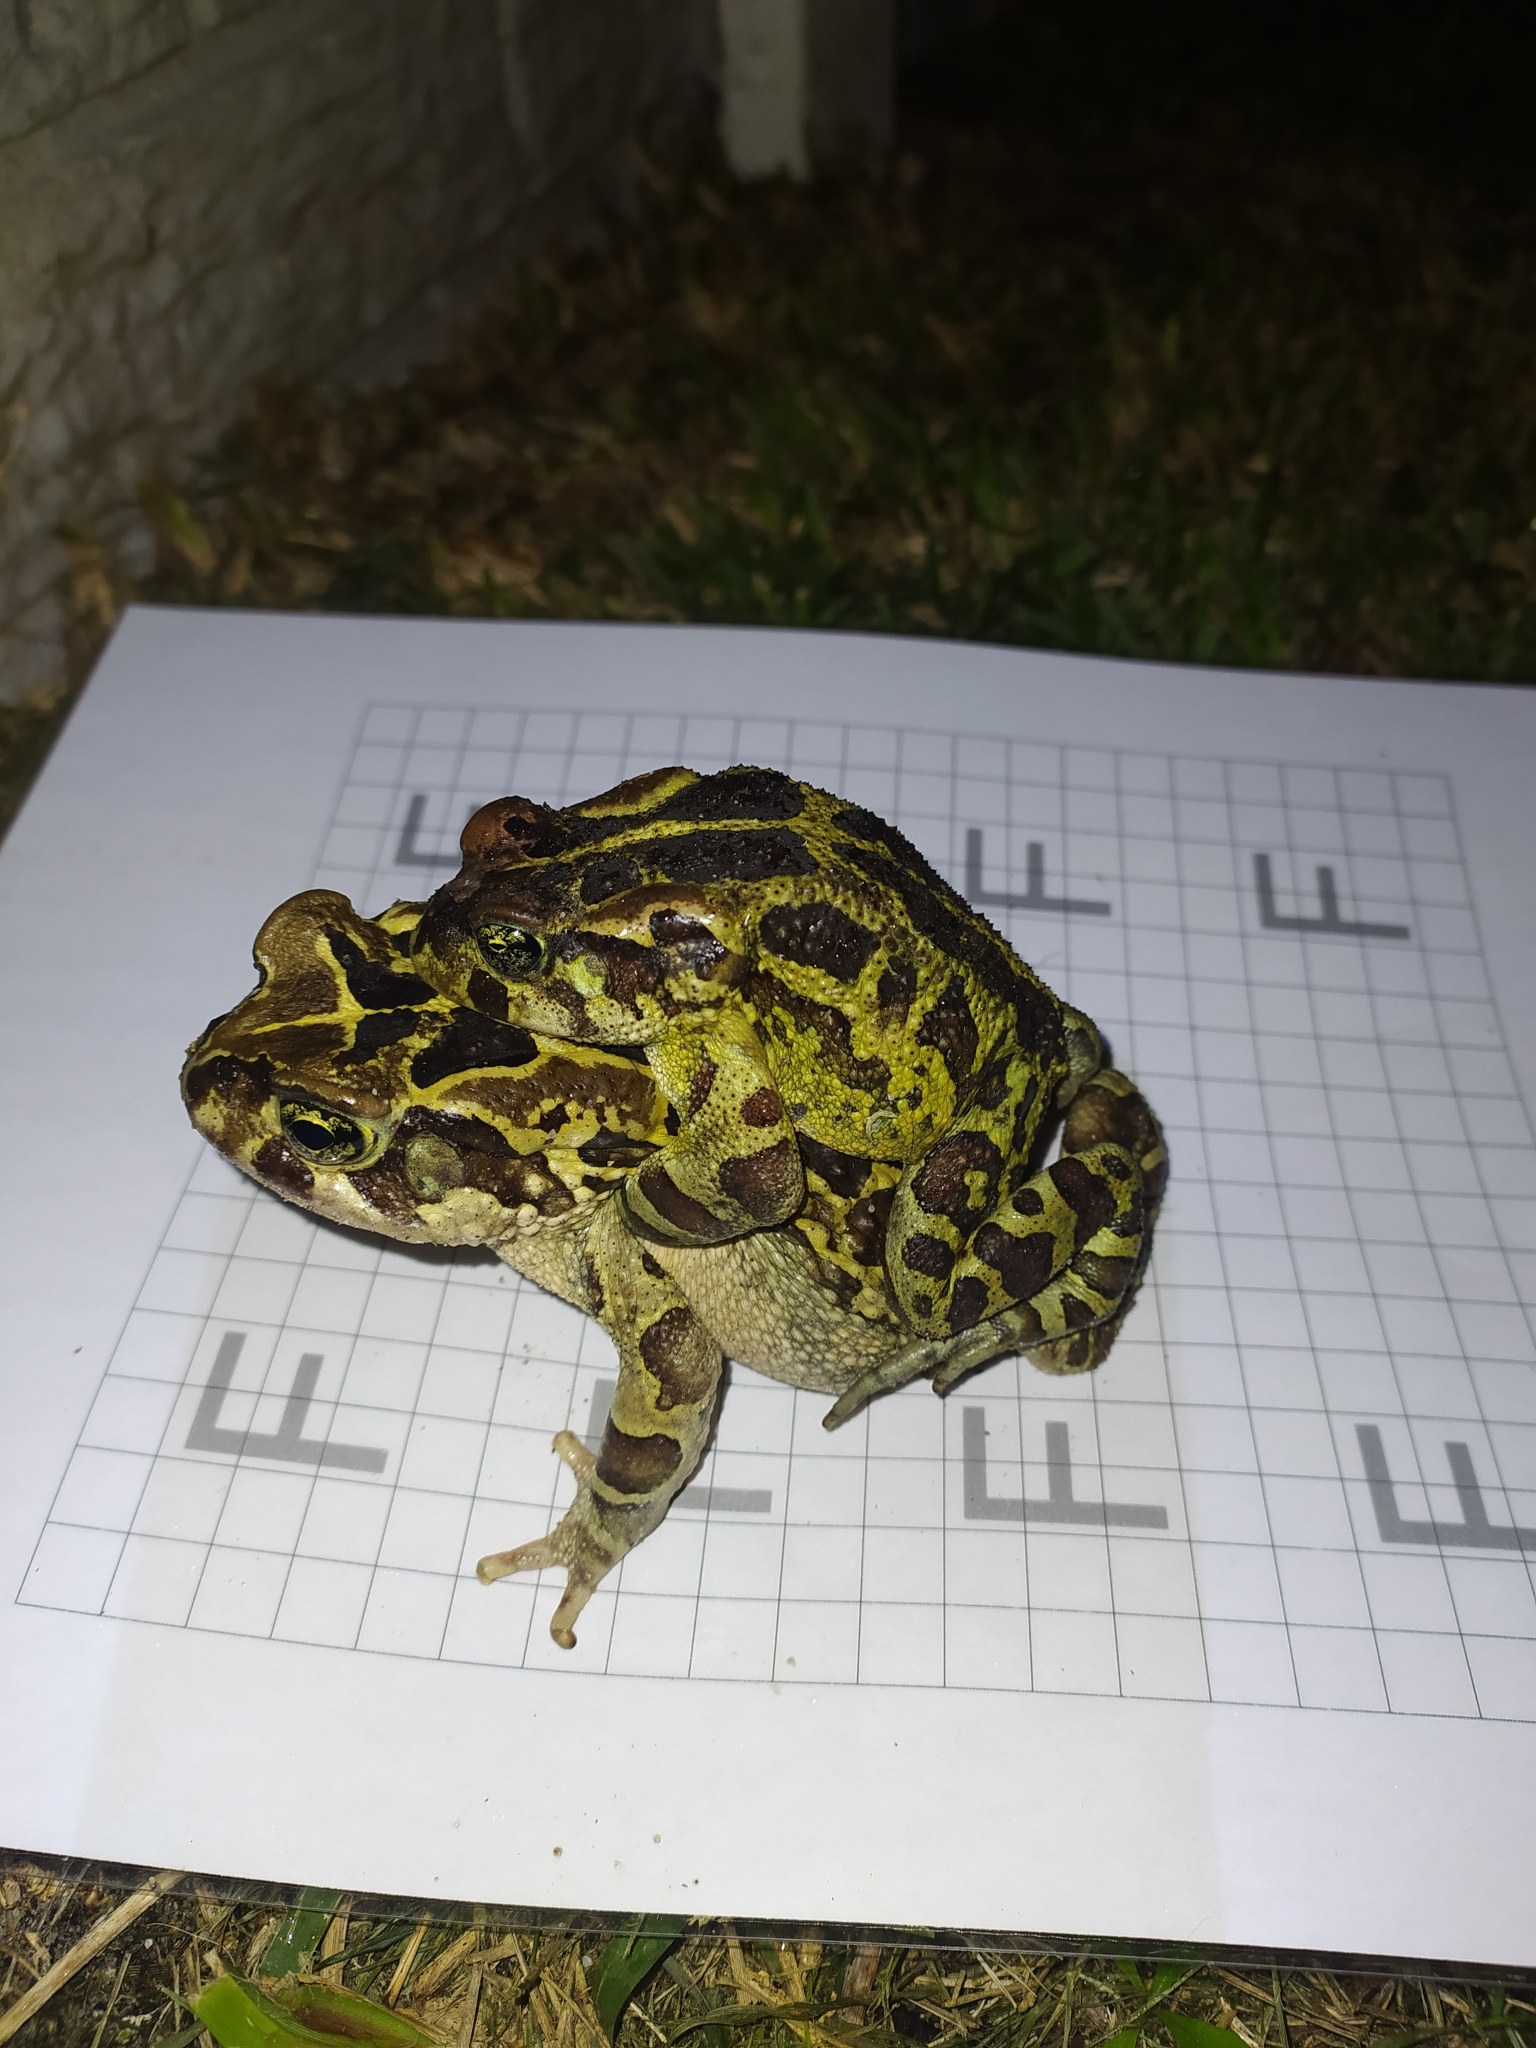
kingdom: Animalia
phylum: Chordata
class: Amphibia
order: Anura
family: Bufonidae
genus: Sclerophrys
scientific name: Sclerophrys pantherina
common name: Panther toad
